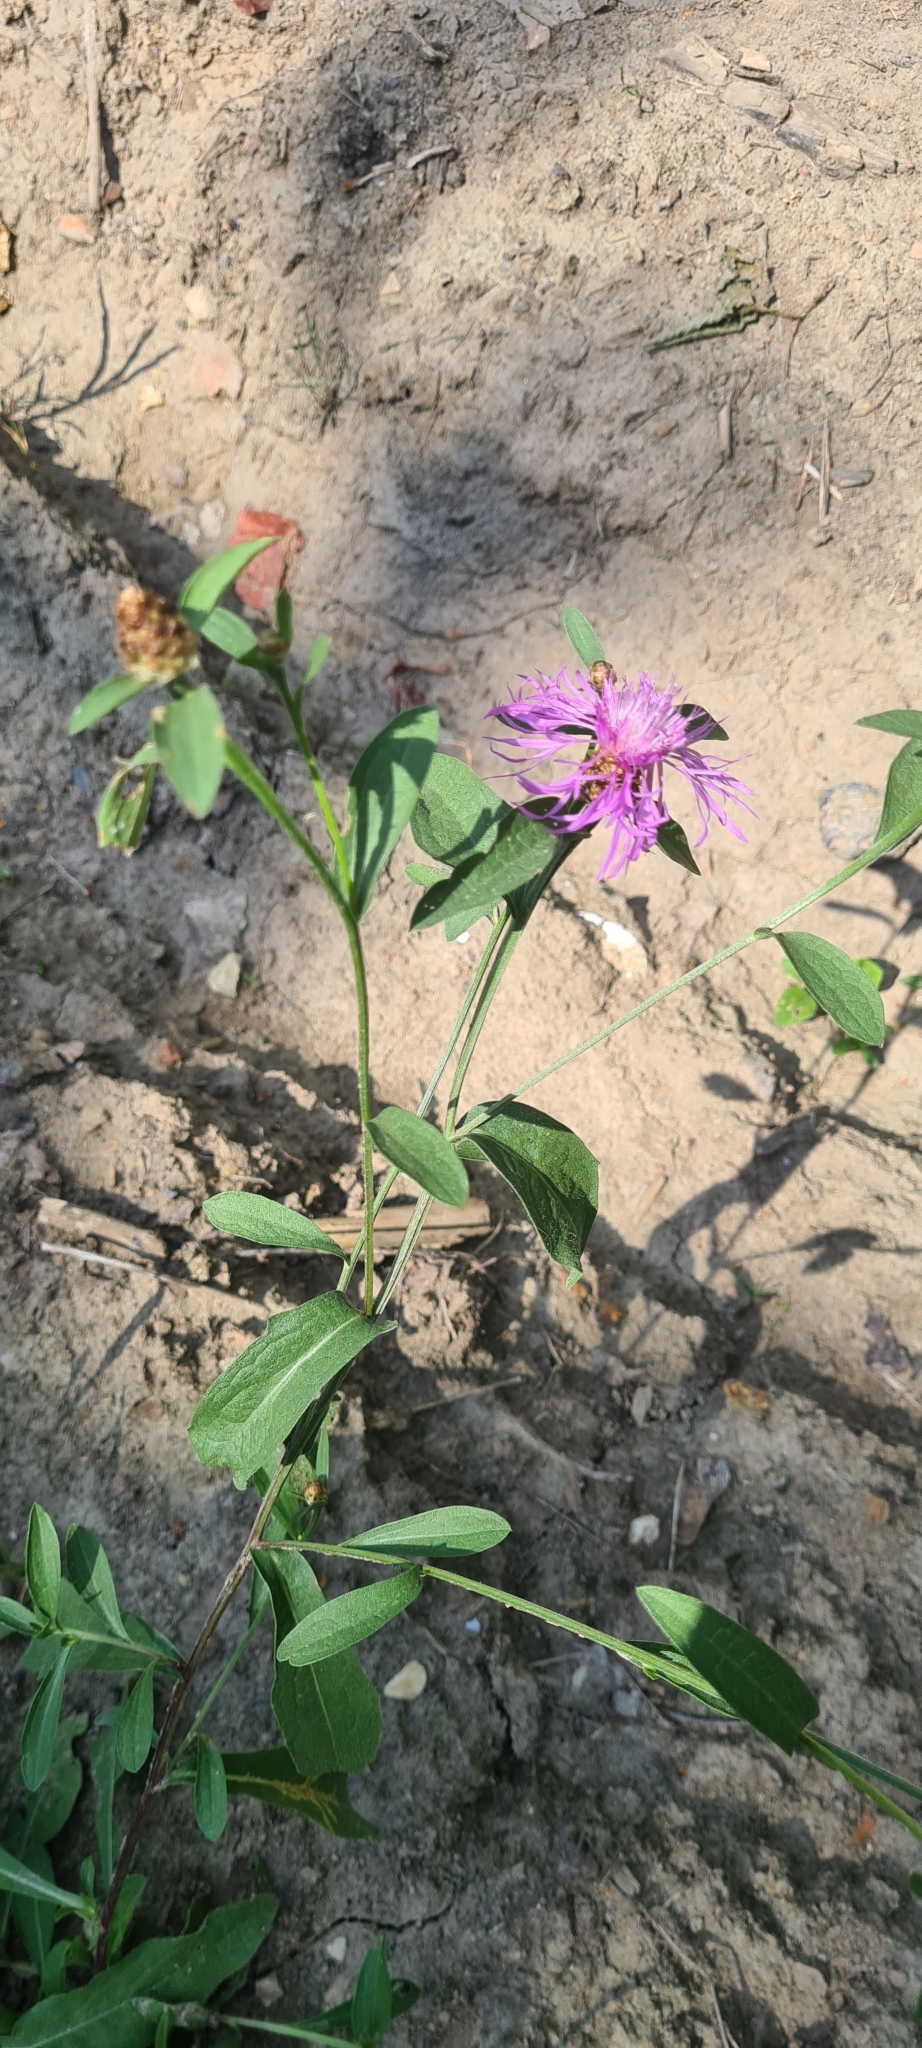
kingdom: Plantae
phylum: Tracheophyta
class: Magnoliopsida
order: Asterales
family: Asteraceae
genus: Centaurea
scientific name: Centaurea jacea
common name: Brown knapweed
